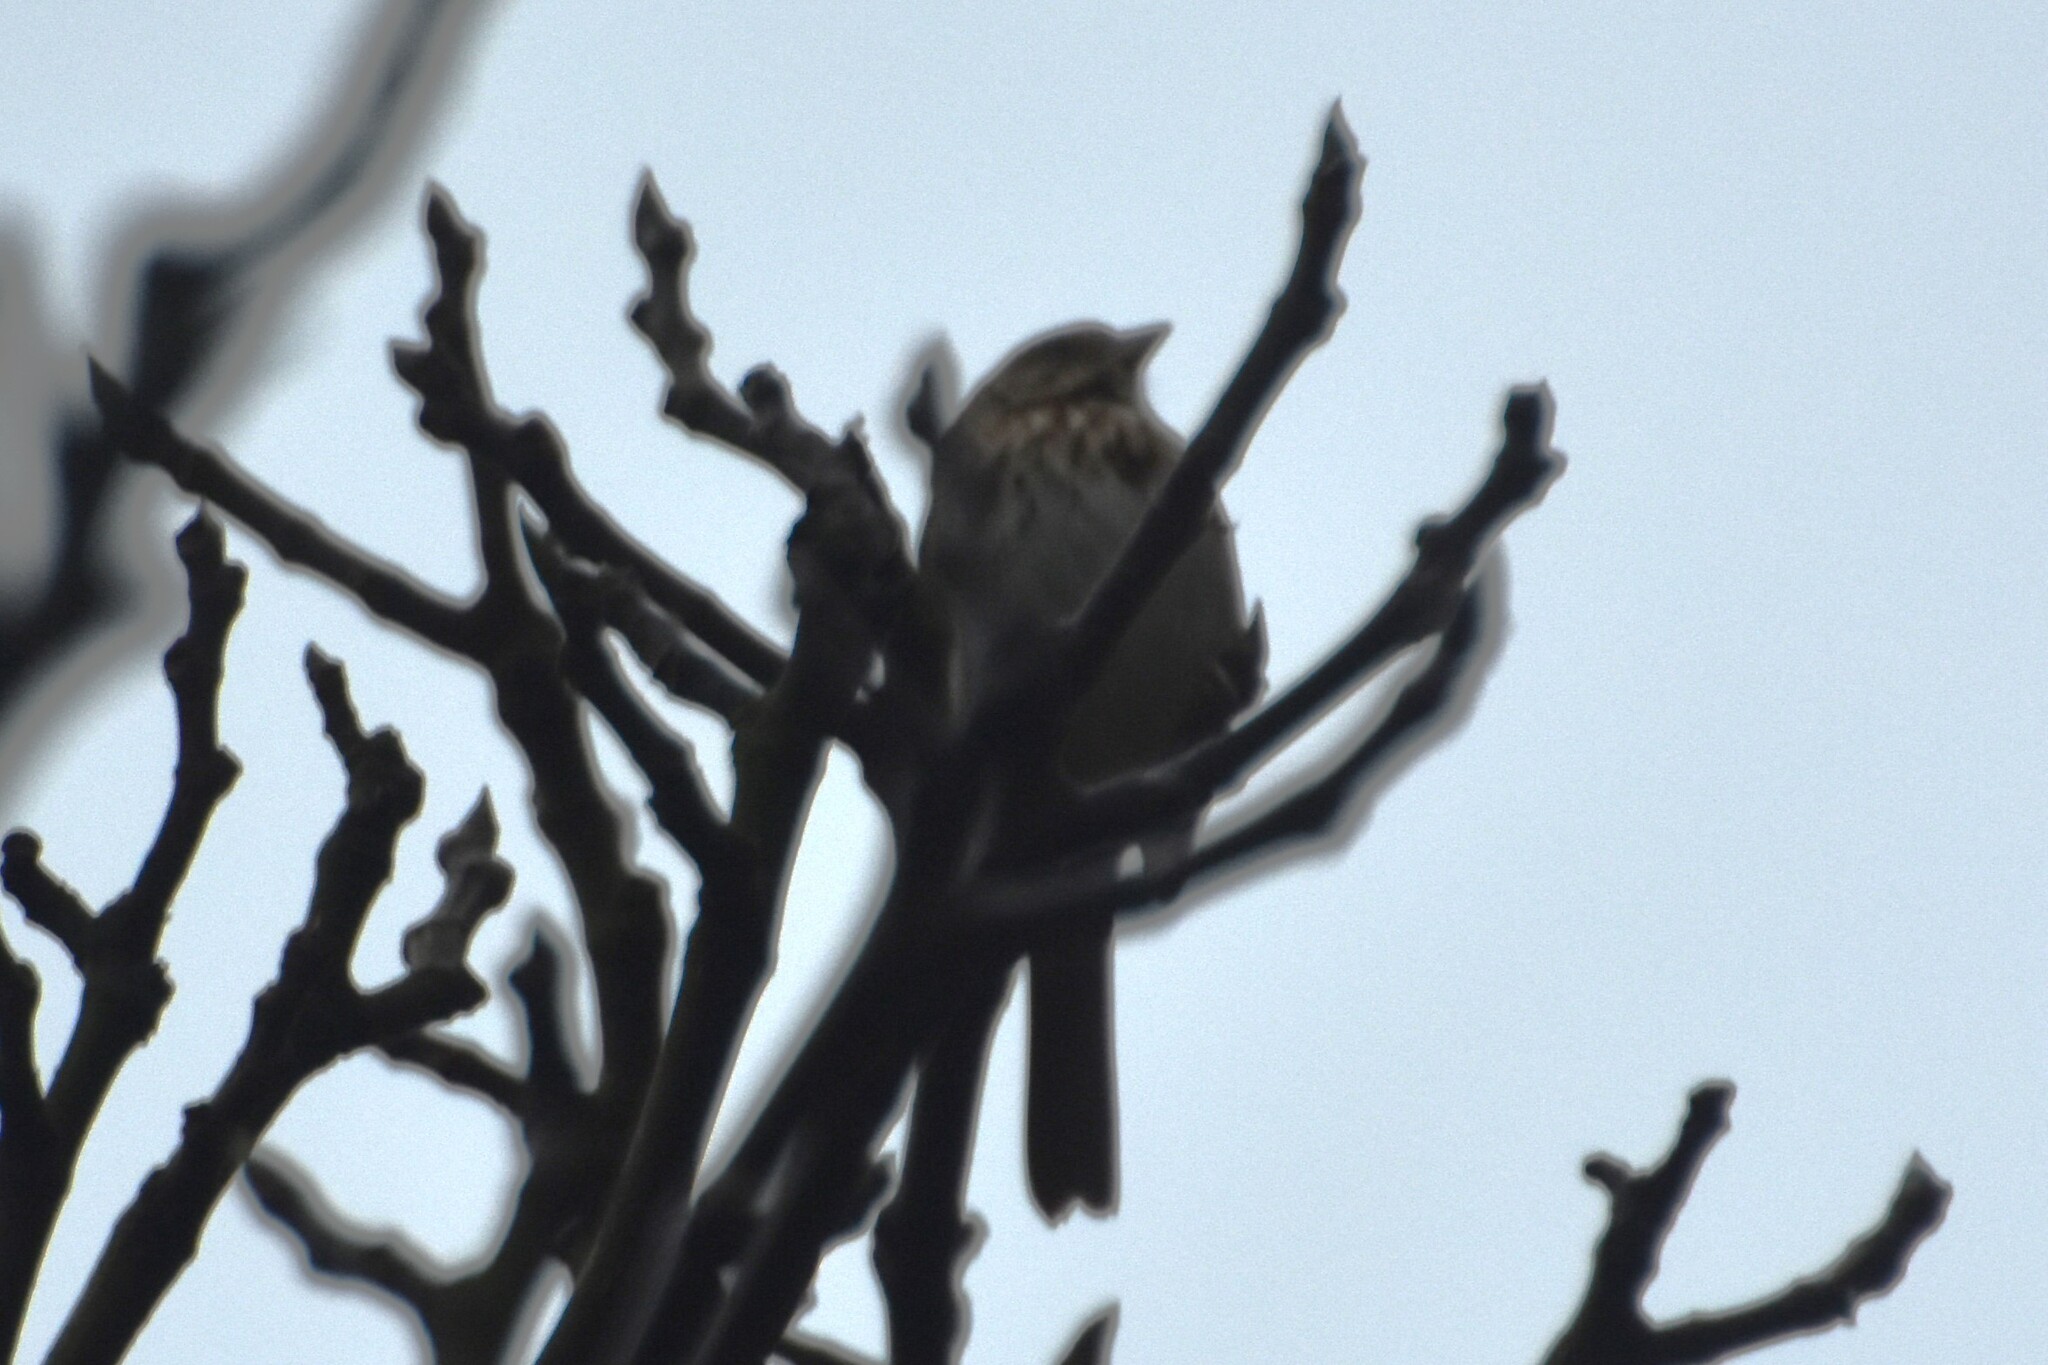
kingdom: Animalia
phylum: Chordata
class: Aves
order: Passeriformes
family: Passerellidae
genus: Melospiza
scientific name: Melospiza melodia
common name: Song sparrow
